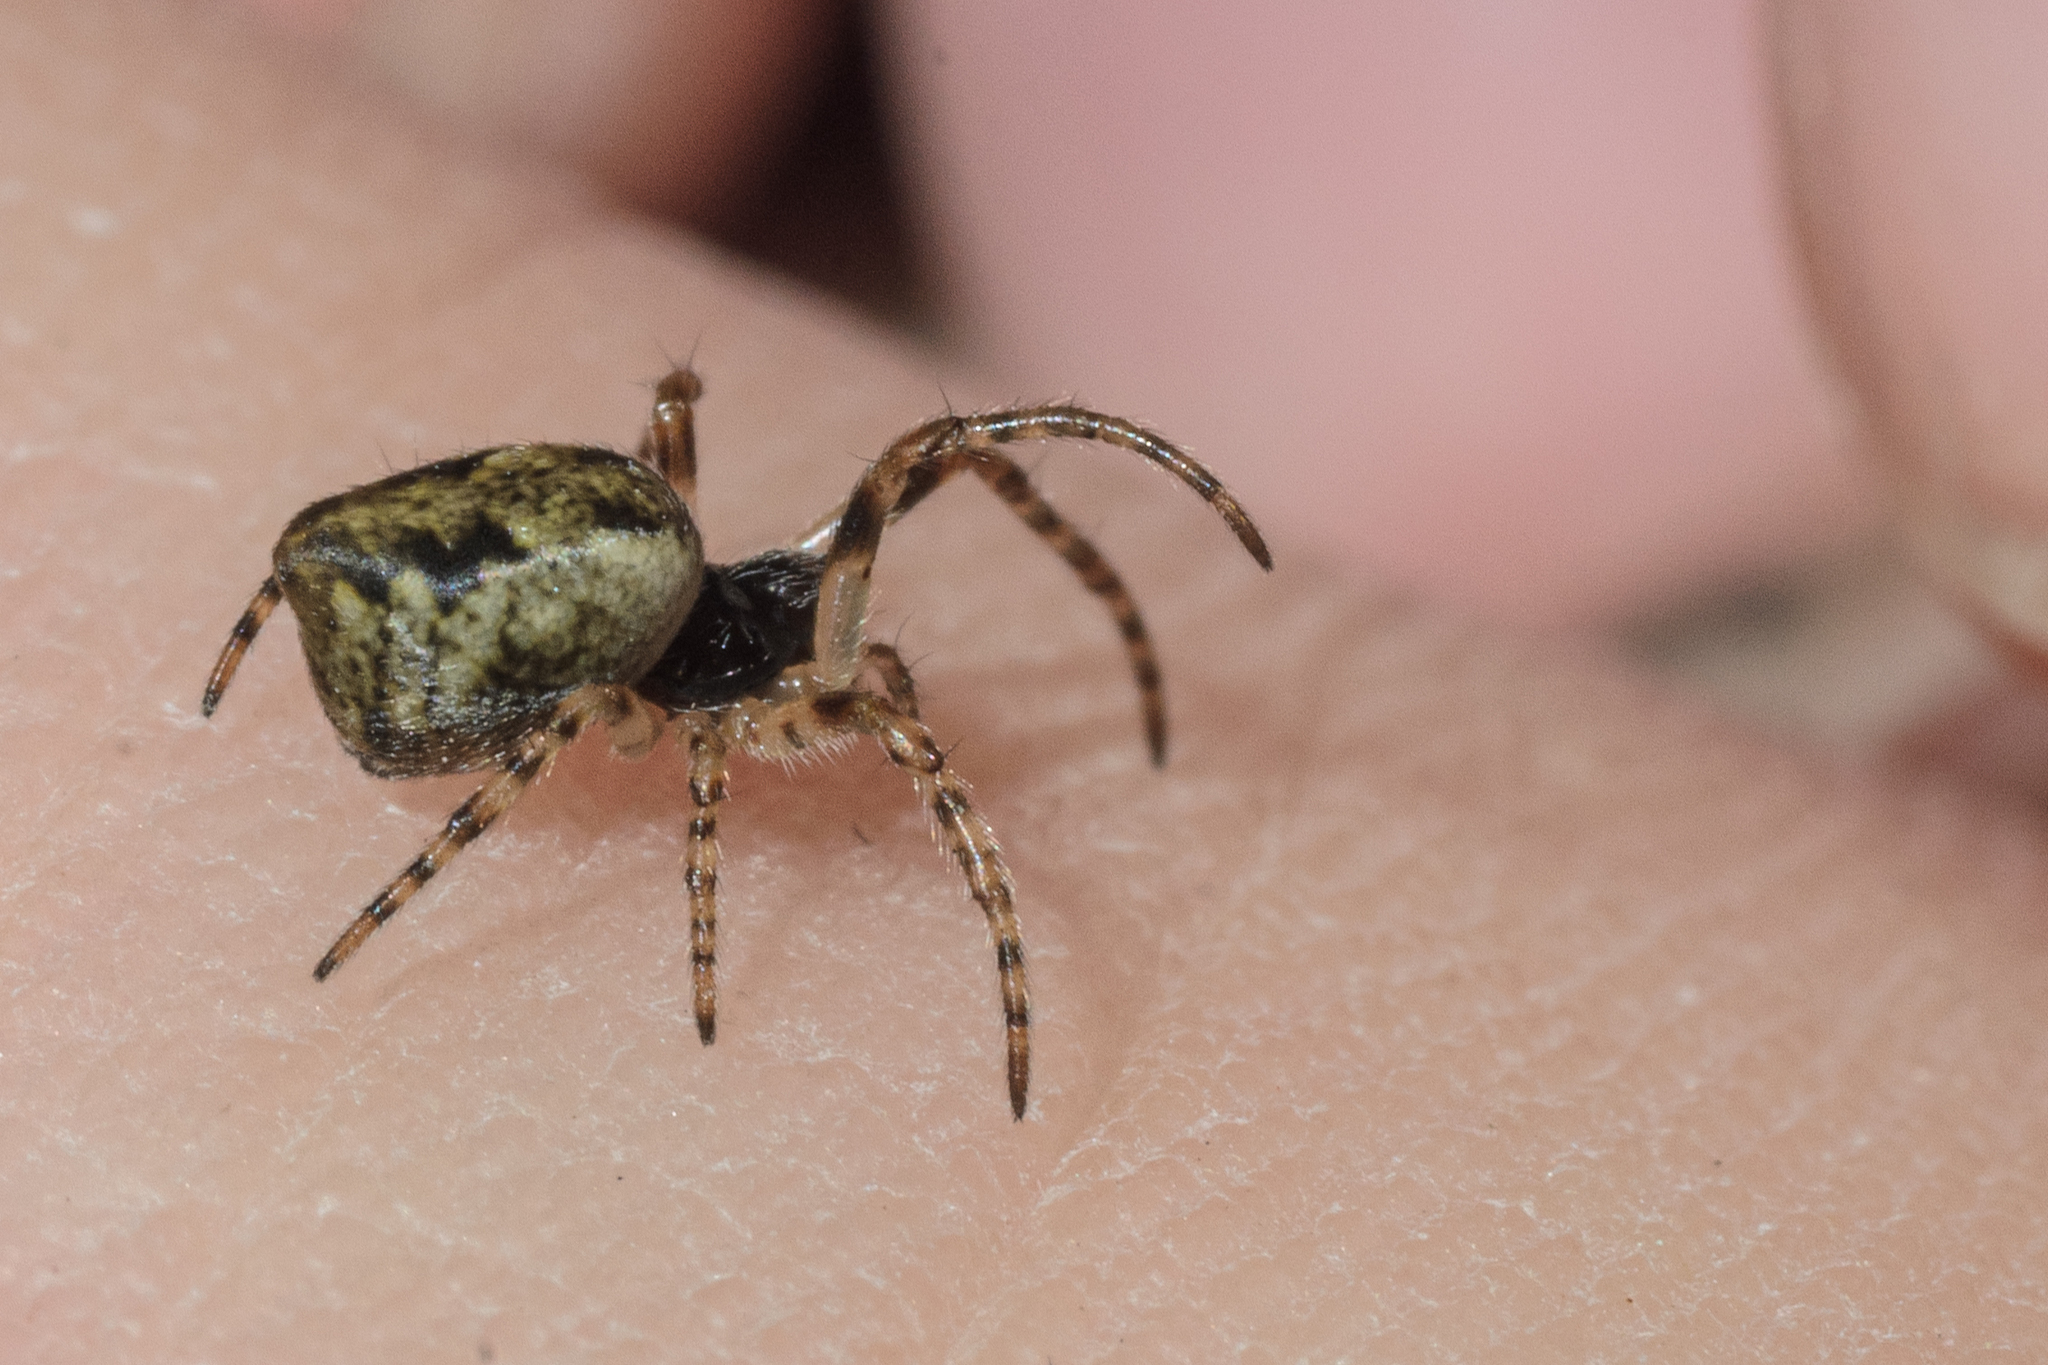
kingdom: Animalia
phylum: Arthropoda
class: Arachnida
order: Araneae
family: Araneidae
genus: Cyclosa
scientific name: Cyclosa conica
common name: Conical trashline orbweaver
